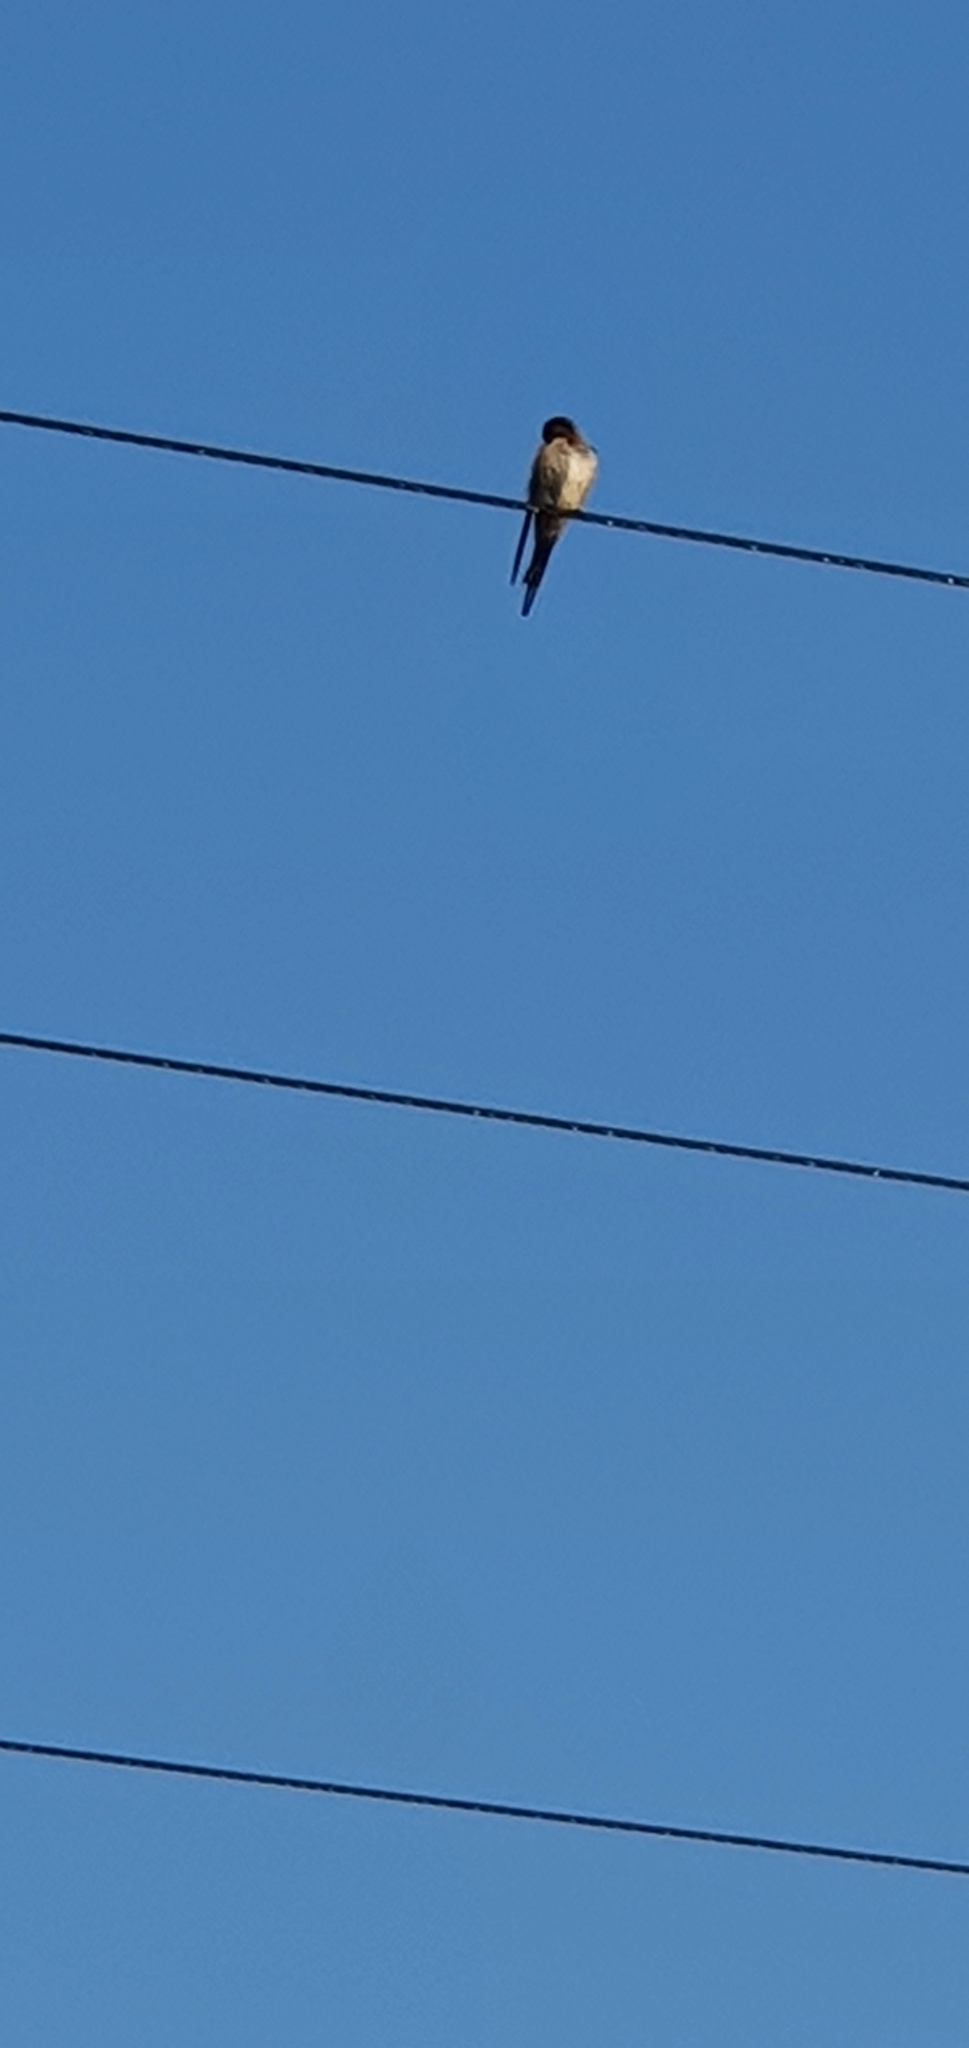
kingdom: Animalia
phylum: Chordata
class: Aves
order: Passeriformes
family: Hirundinidae
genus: Hirundo
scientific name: Hirundo neoxena
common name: Welcome swallow
